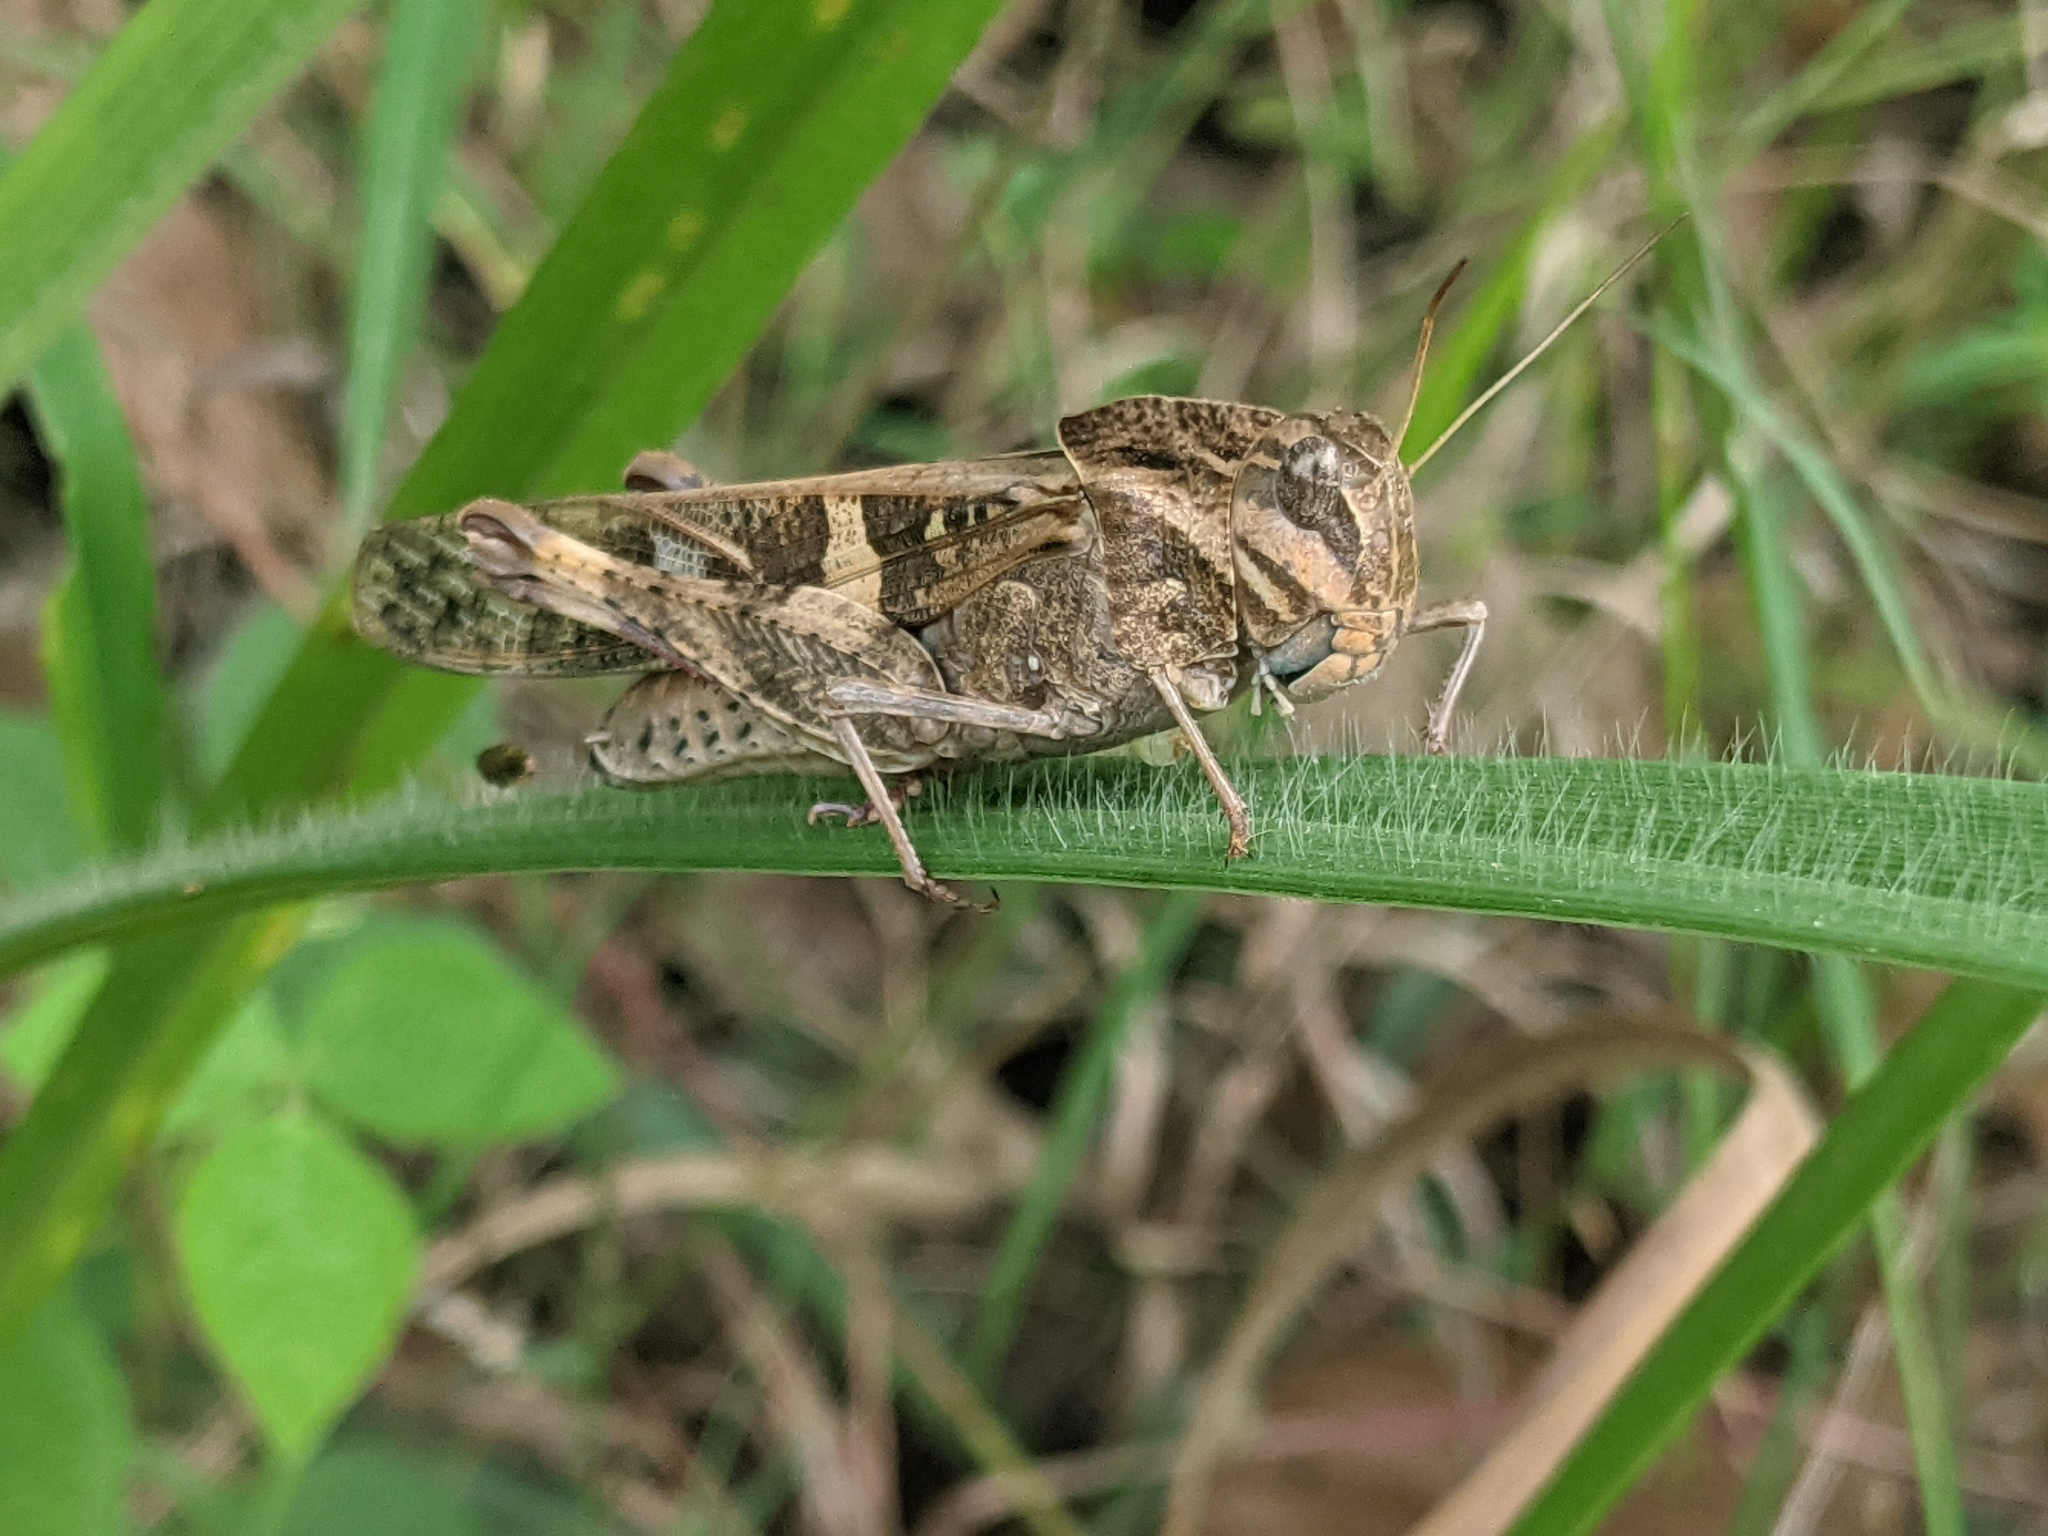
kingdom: Animalia
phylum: Arthropoda
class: Insecta
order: Orthoptera
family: Acrididae
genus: Gastrimargus
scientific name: Gastrimargus africanus
